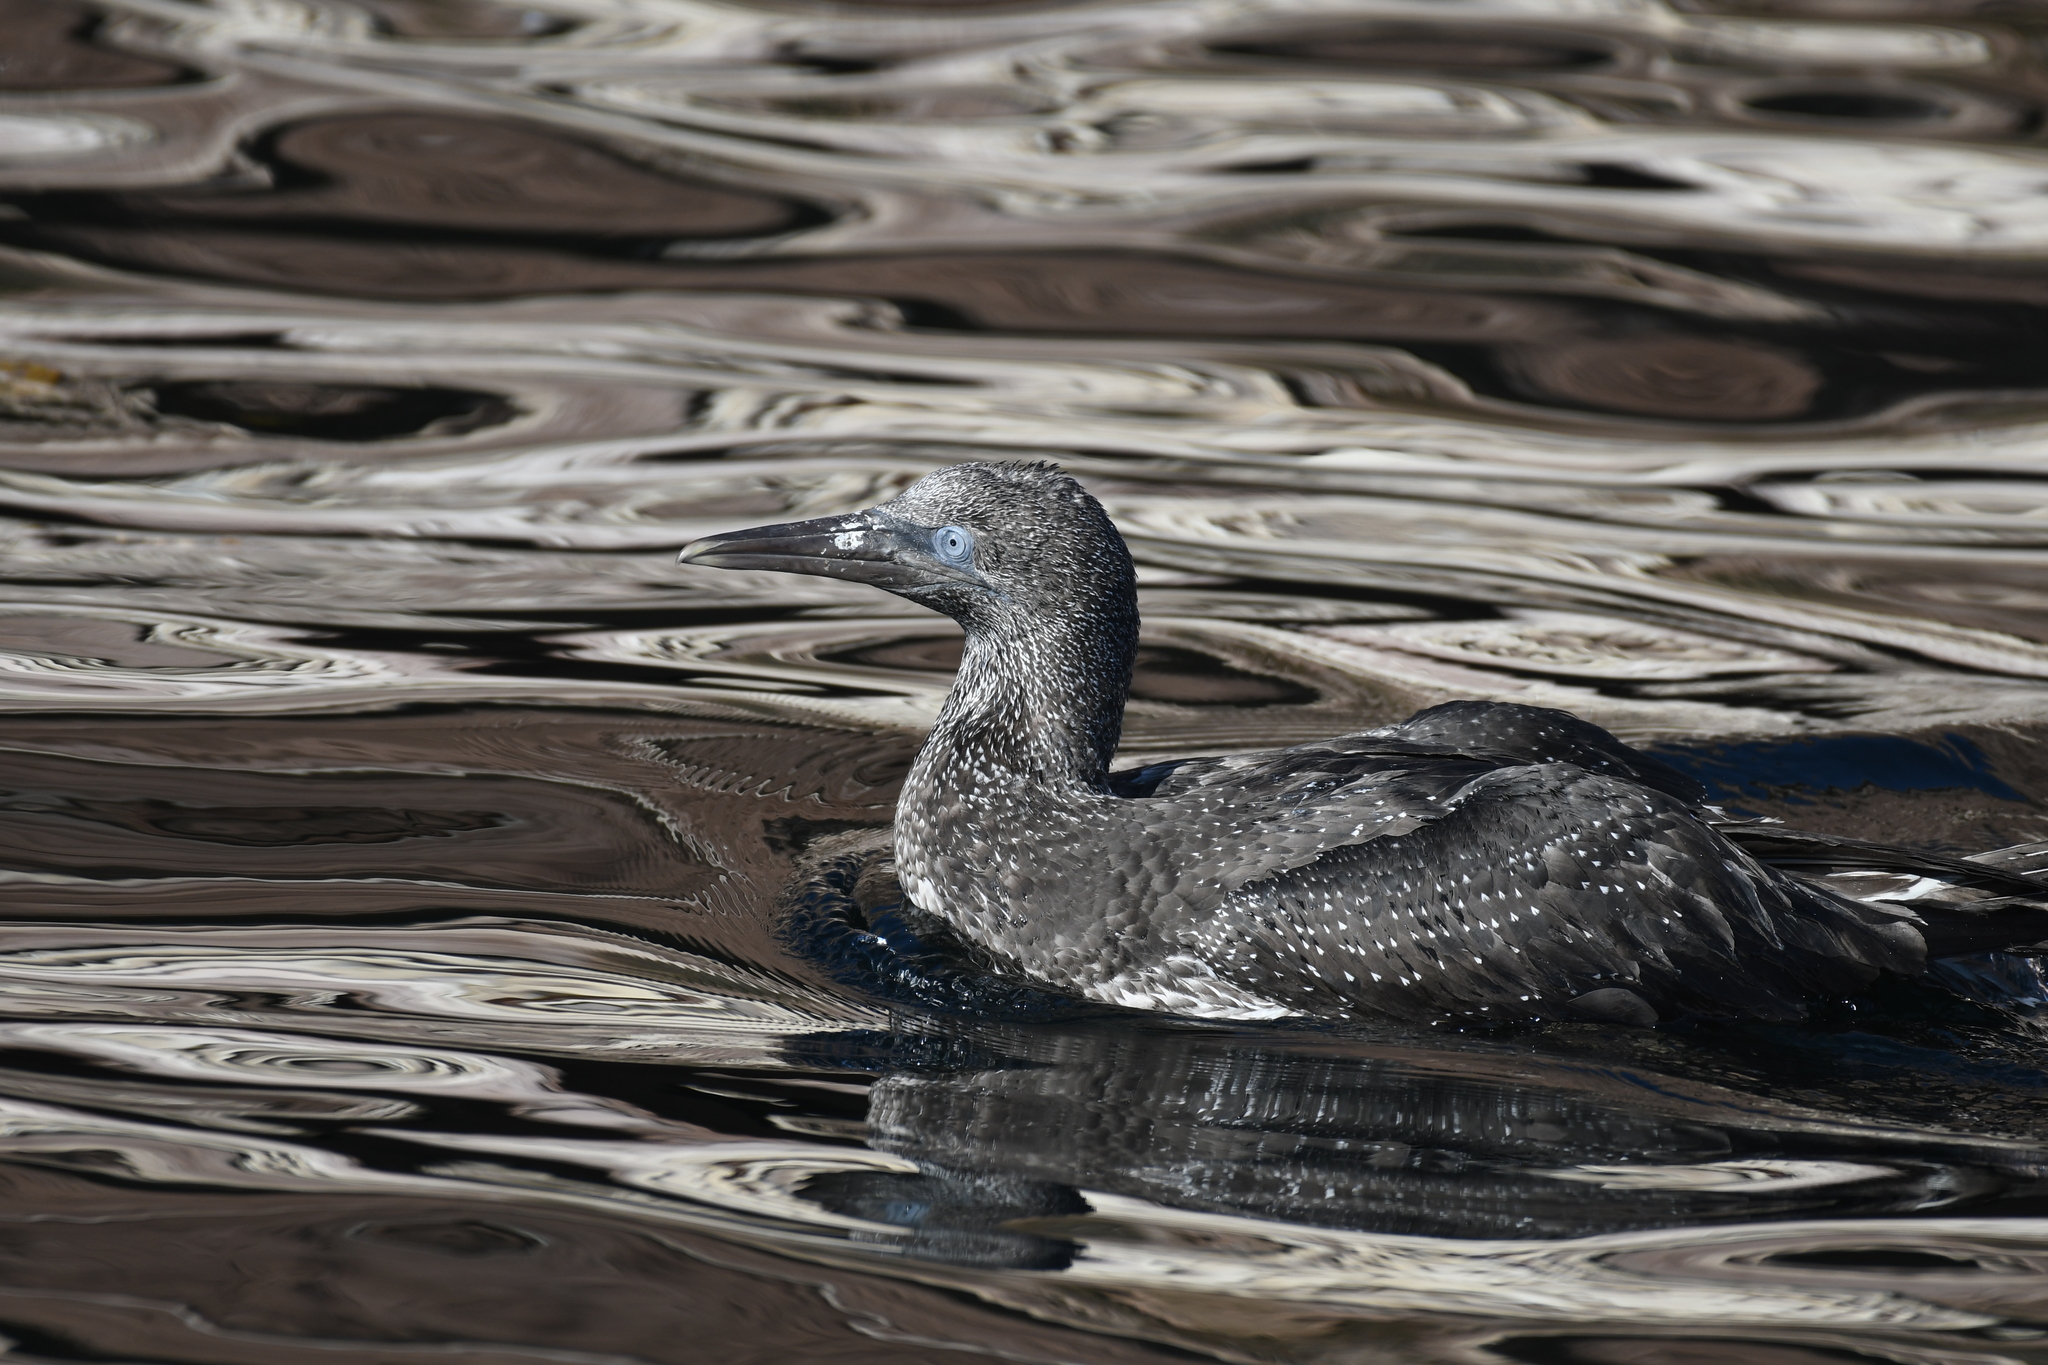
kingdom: Animalia
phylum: Chordata
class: Aves
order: Suliformes
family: Sulidae
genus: Morus
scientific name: Morus bassanus
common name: Northern gannet
